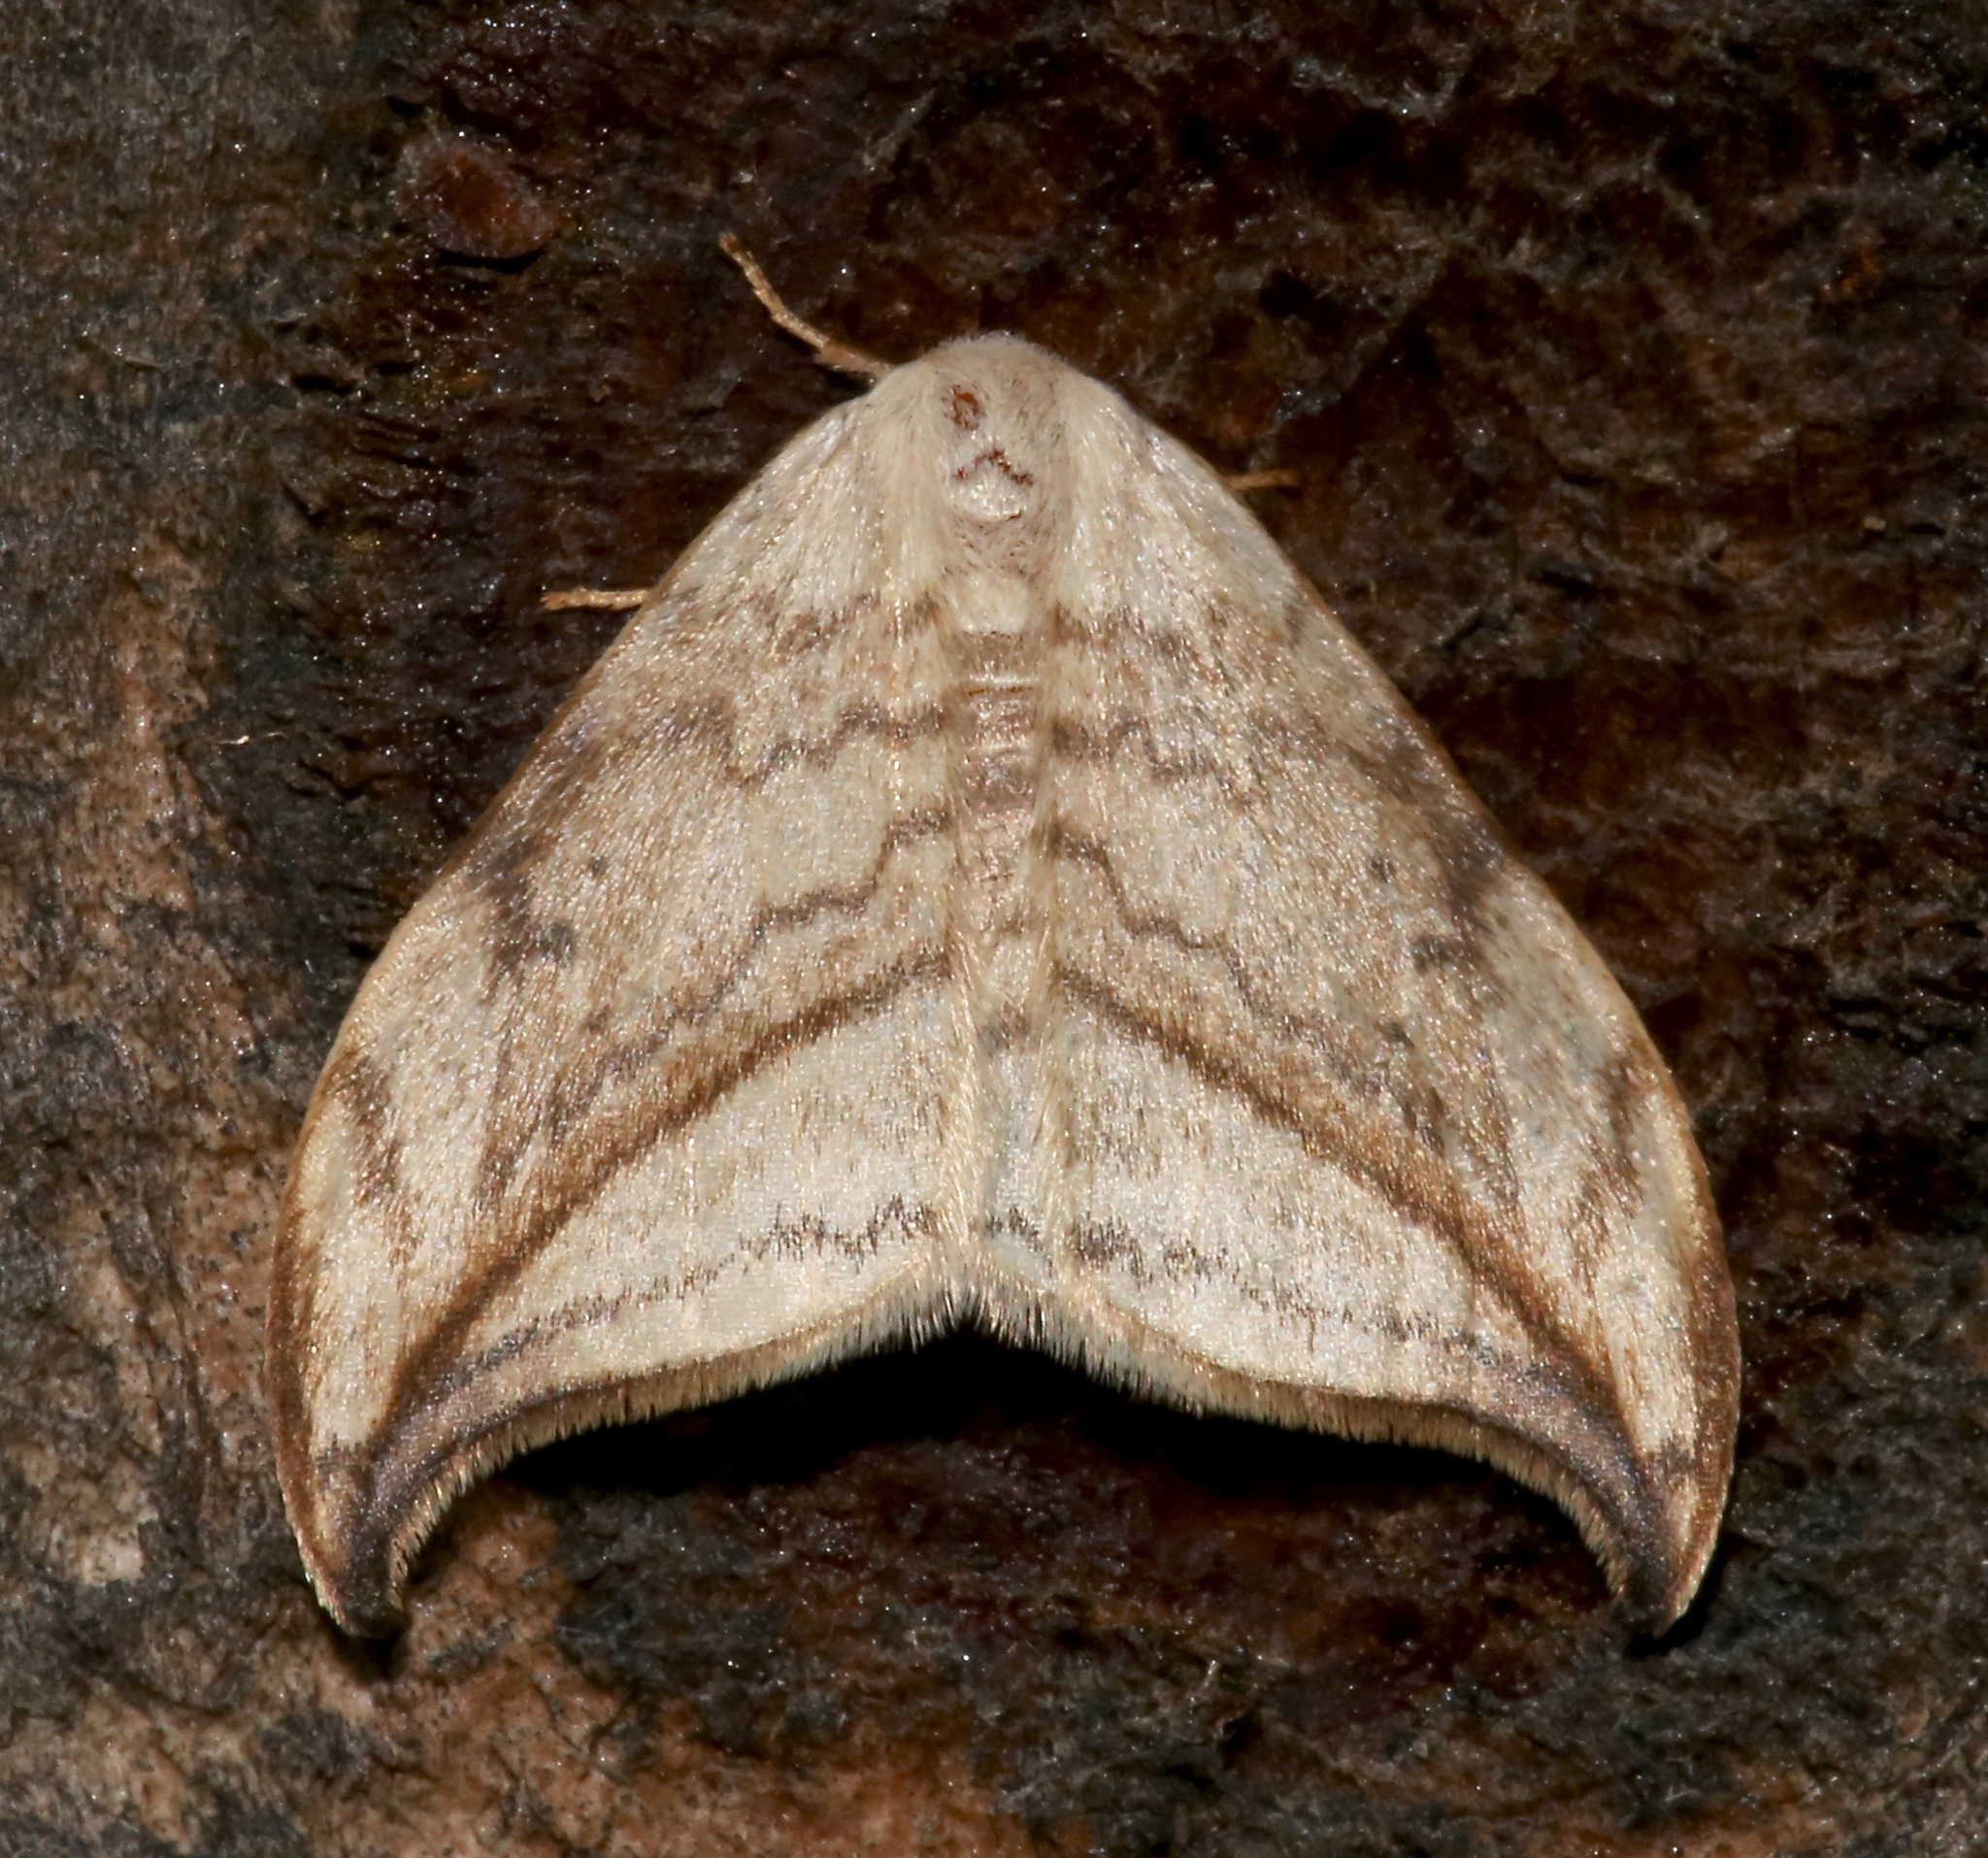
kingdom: Animalia
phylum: Arthropoda
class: Insecta
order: Lepidoptera
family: Drepanidae
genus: Drepana
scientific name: Drepana arcuata
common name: Arched hooktip moth
